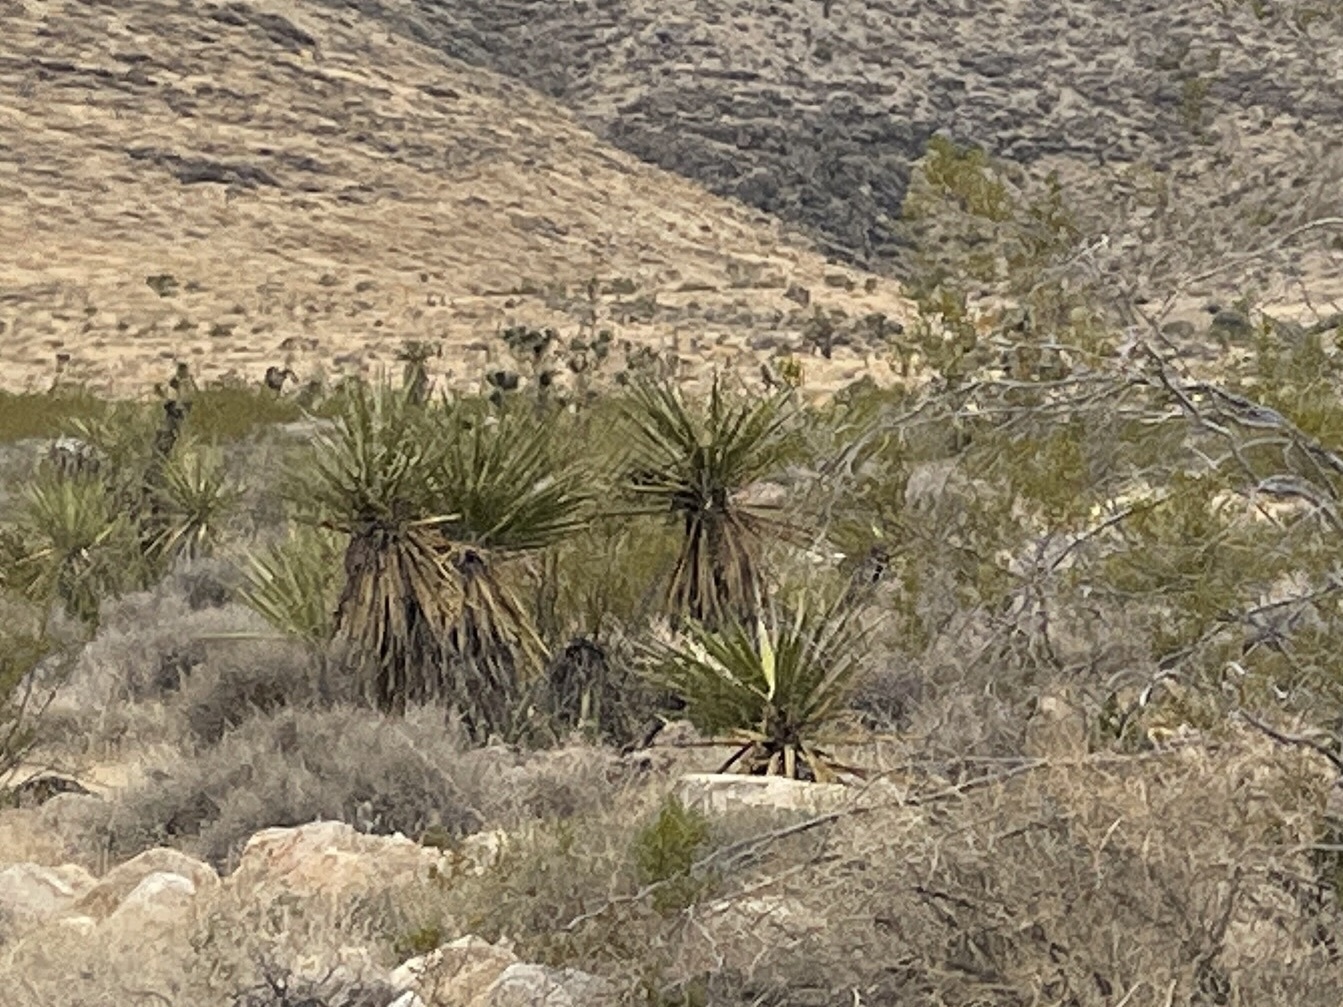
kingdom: Plantae
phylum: Tracheophyta
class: Liliopsida
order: Asparagales
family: Asparagaceae
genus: Yucca
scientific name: Yucca schidigera
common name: Mojave yucca
